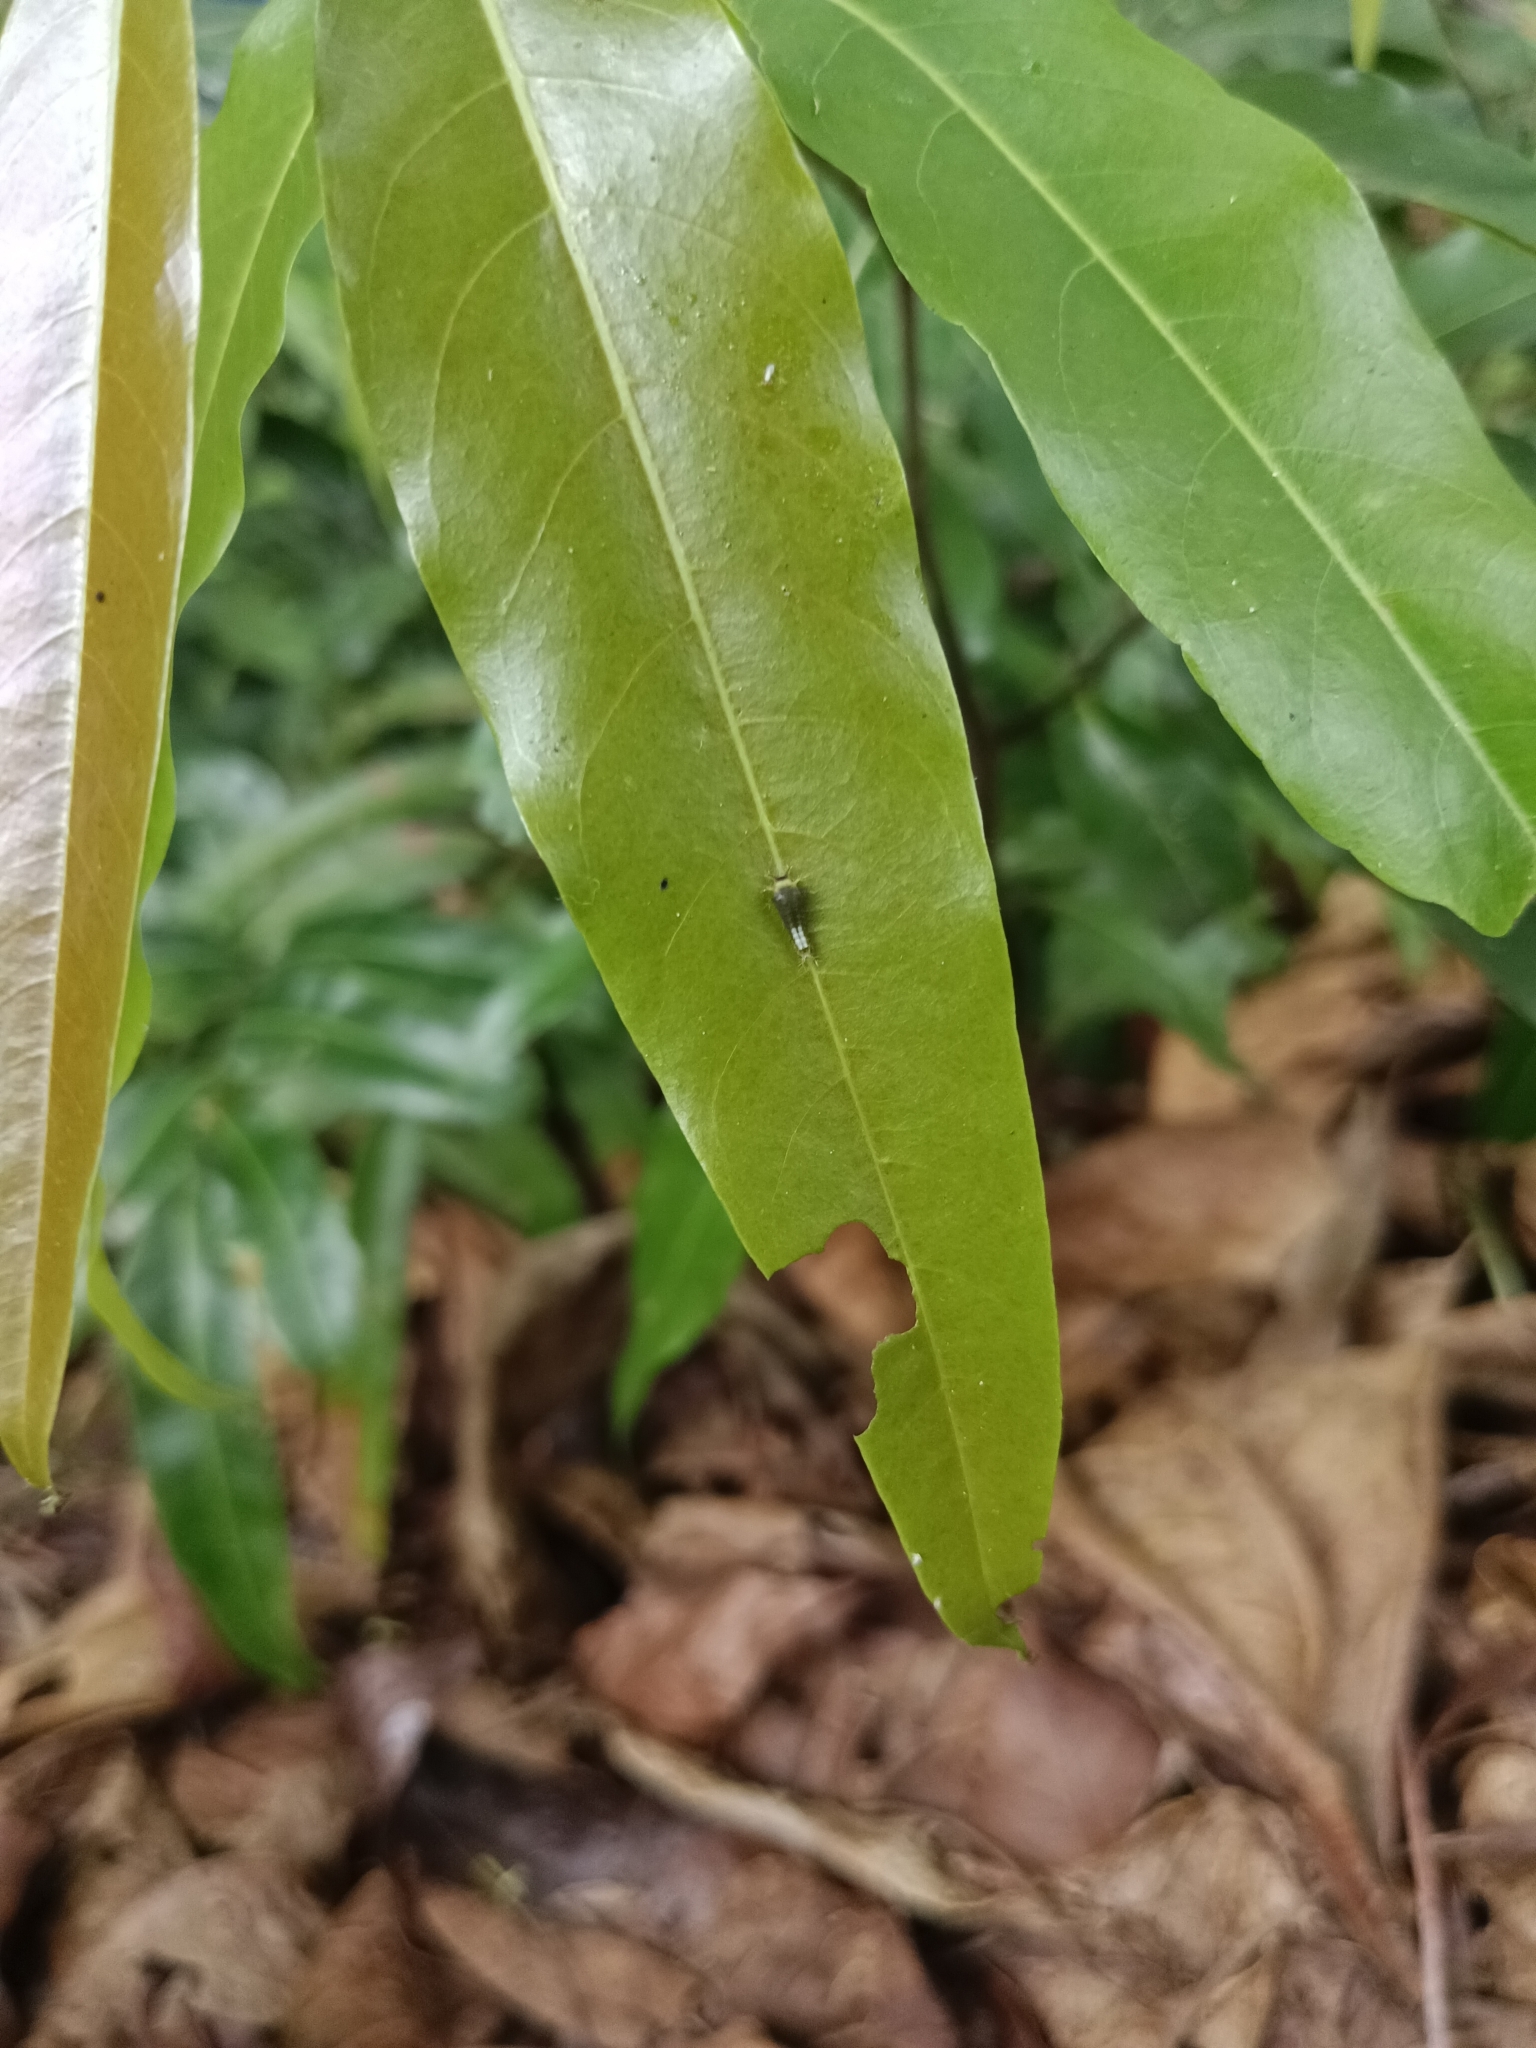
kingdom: Animalia
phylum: Arthropoda
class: Insecta
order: Lepidoptera
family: Papilionidae
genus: Graphium
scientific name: Graphium agamemnon
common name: Tailed jay
